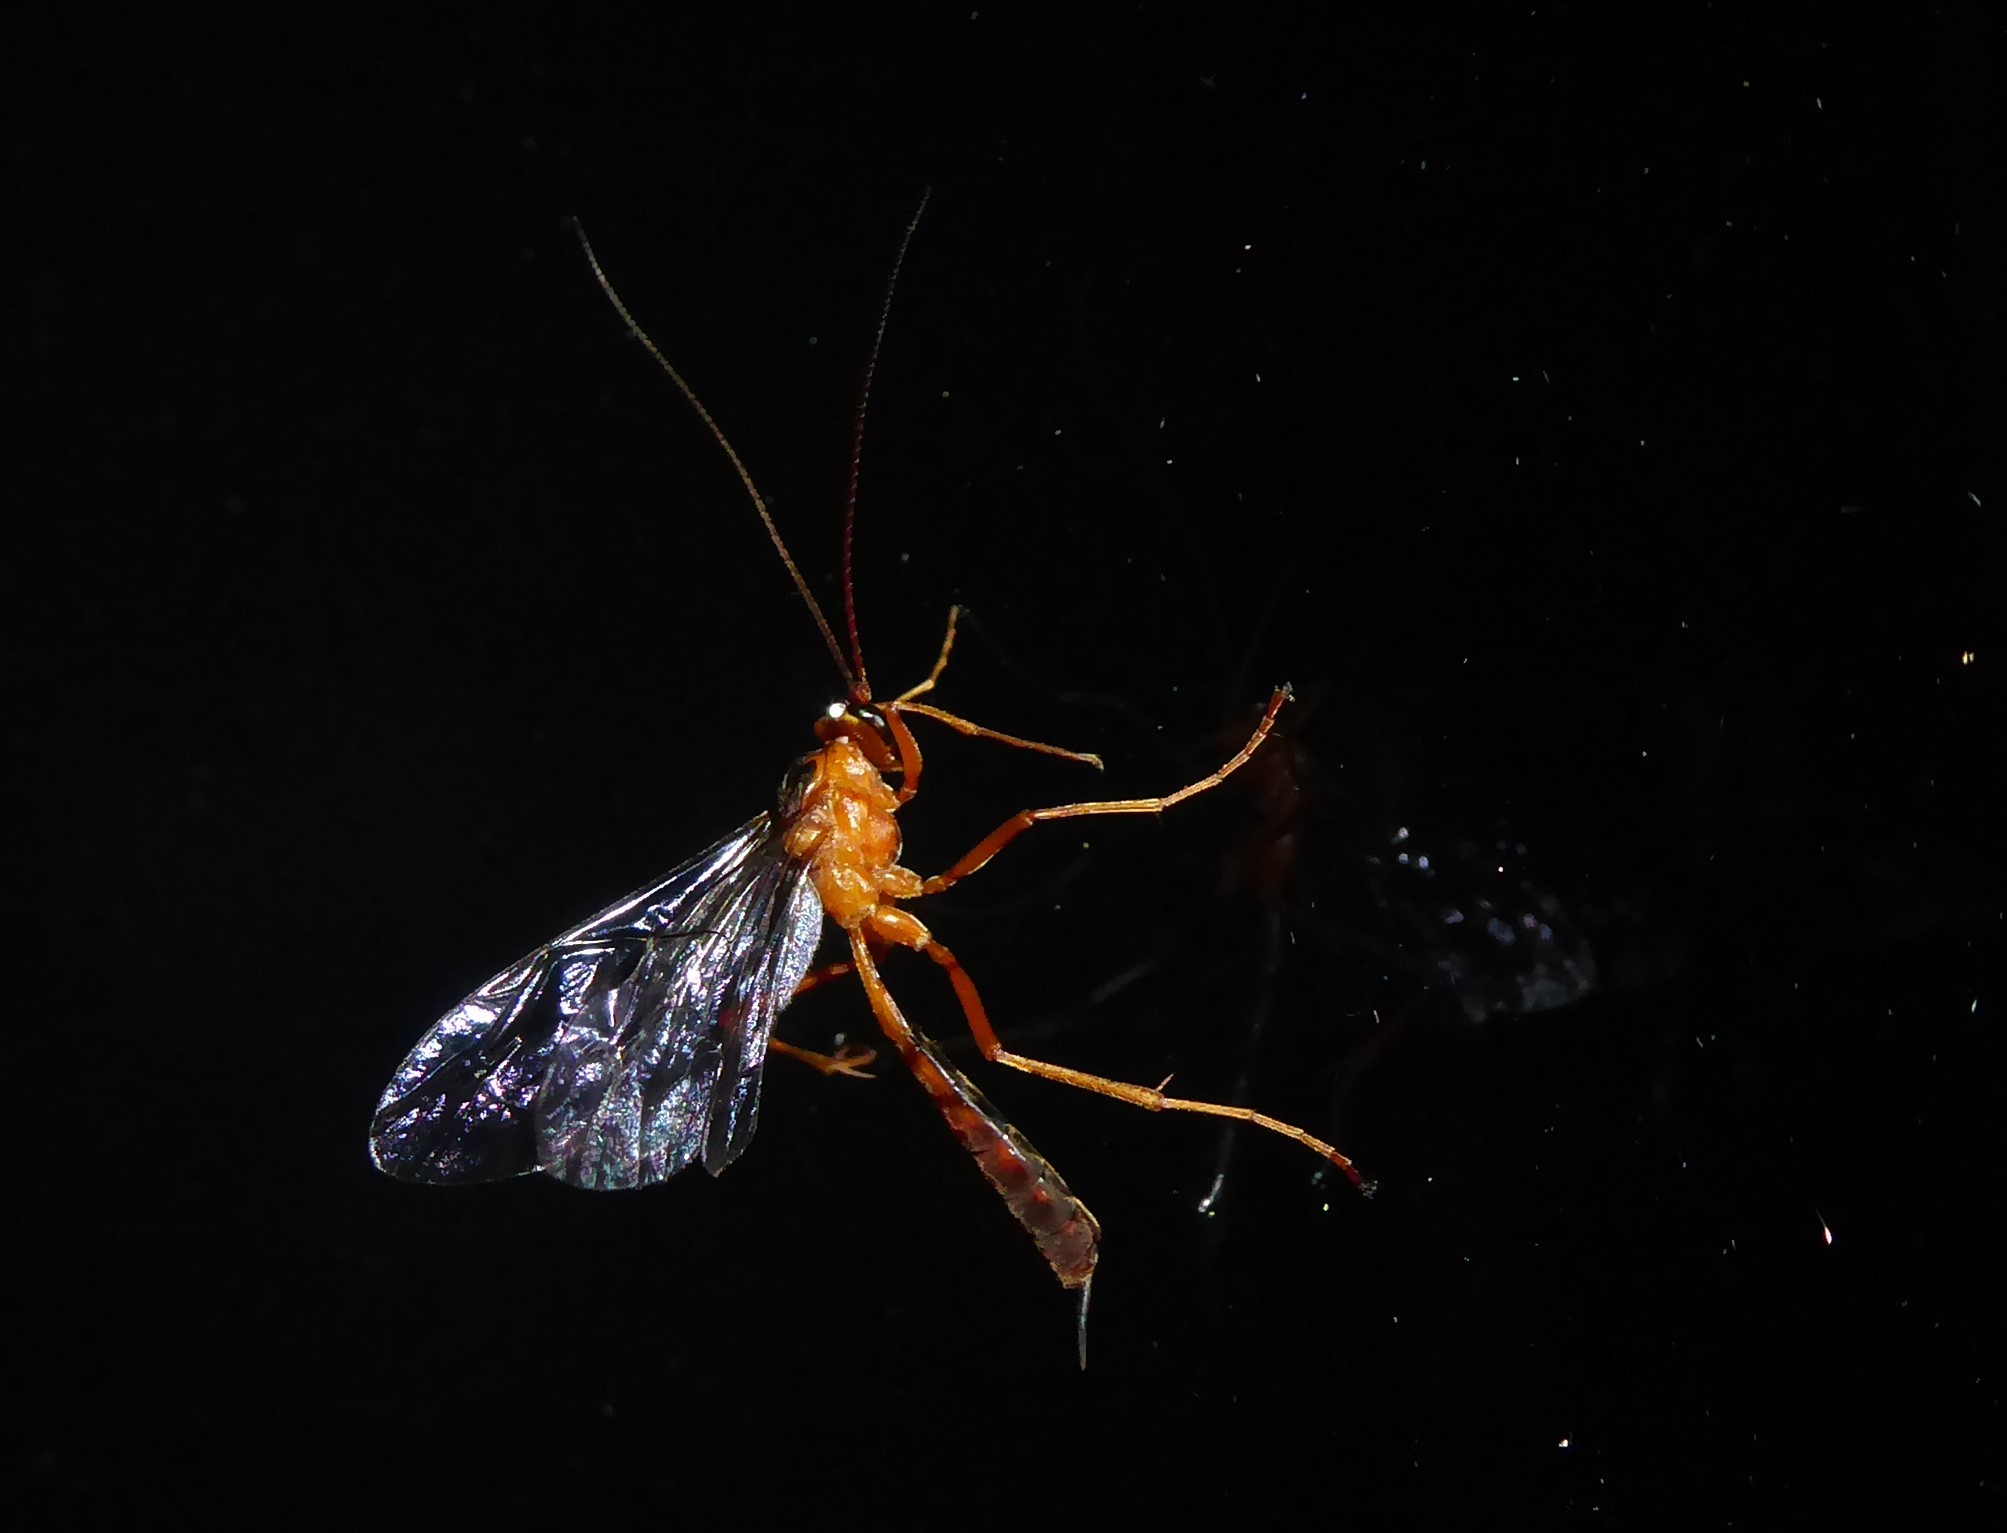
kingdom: Animalia
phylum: Arthropoda
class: Insecta
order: Hymenoptera
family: Ichneumonidae
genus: Netelia
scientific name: Netelia ephippiata
